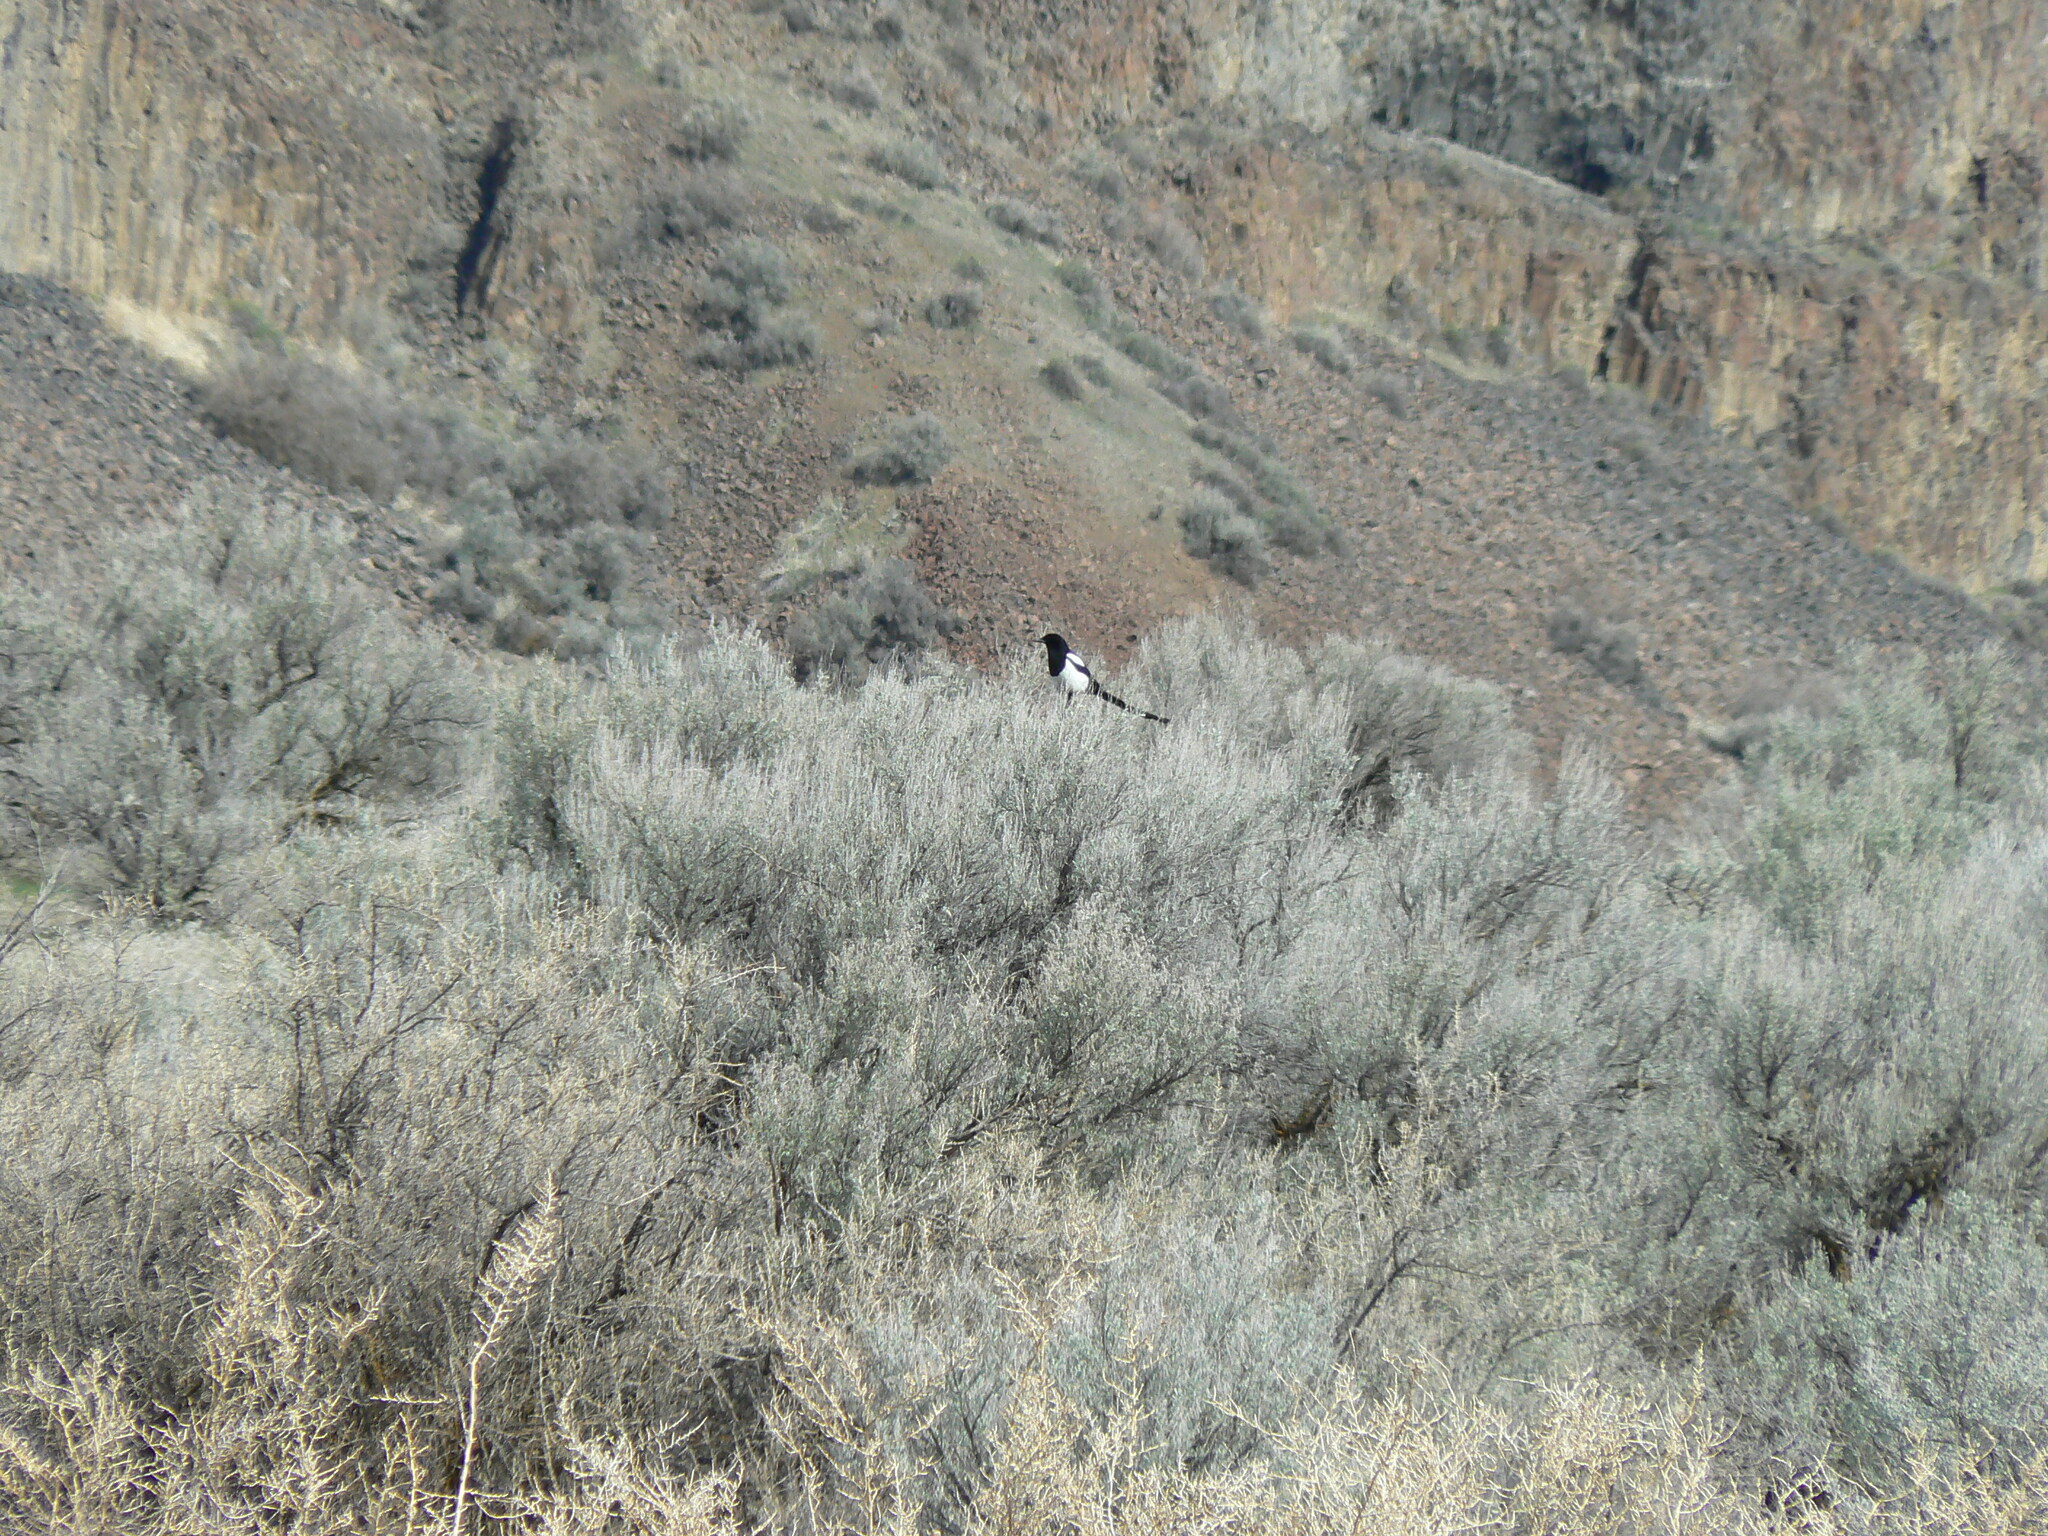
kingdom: Animalia
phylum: Chordata
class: Aves
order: Passeriformes
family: Corvidae
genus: Pica
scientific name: Pica hudsonia
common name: Black-billed magpie
